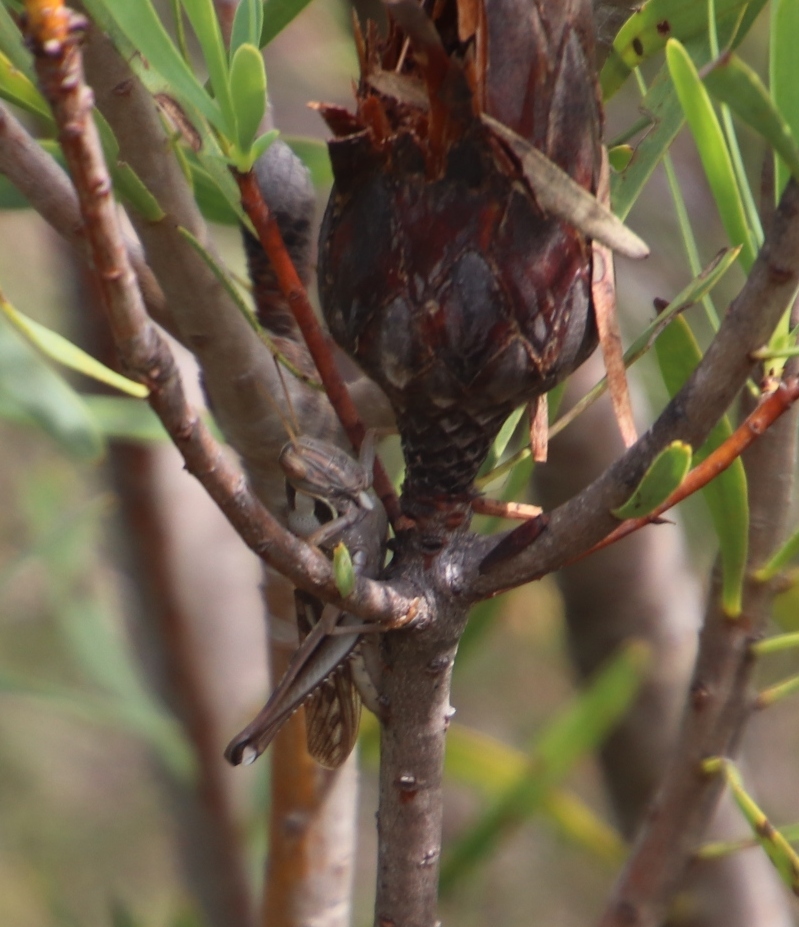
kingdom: Animalia
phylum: Arthropoda
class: Insecta
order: Orthoptera
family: Acrididae
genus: Cyrtacanthacris
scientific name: Cyrtacanthacris tatarica
